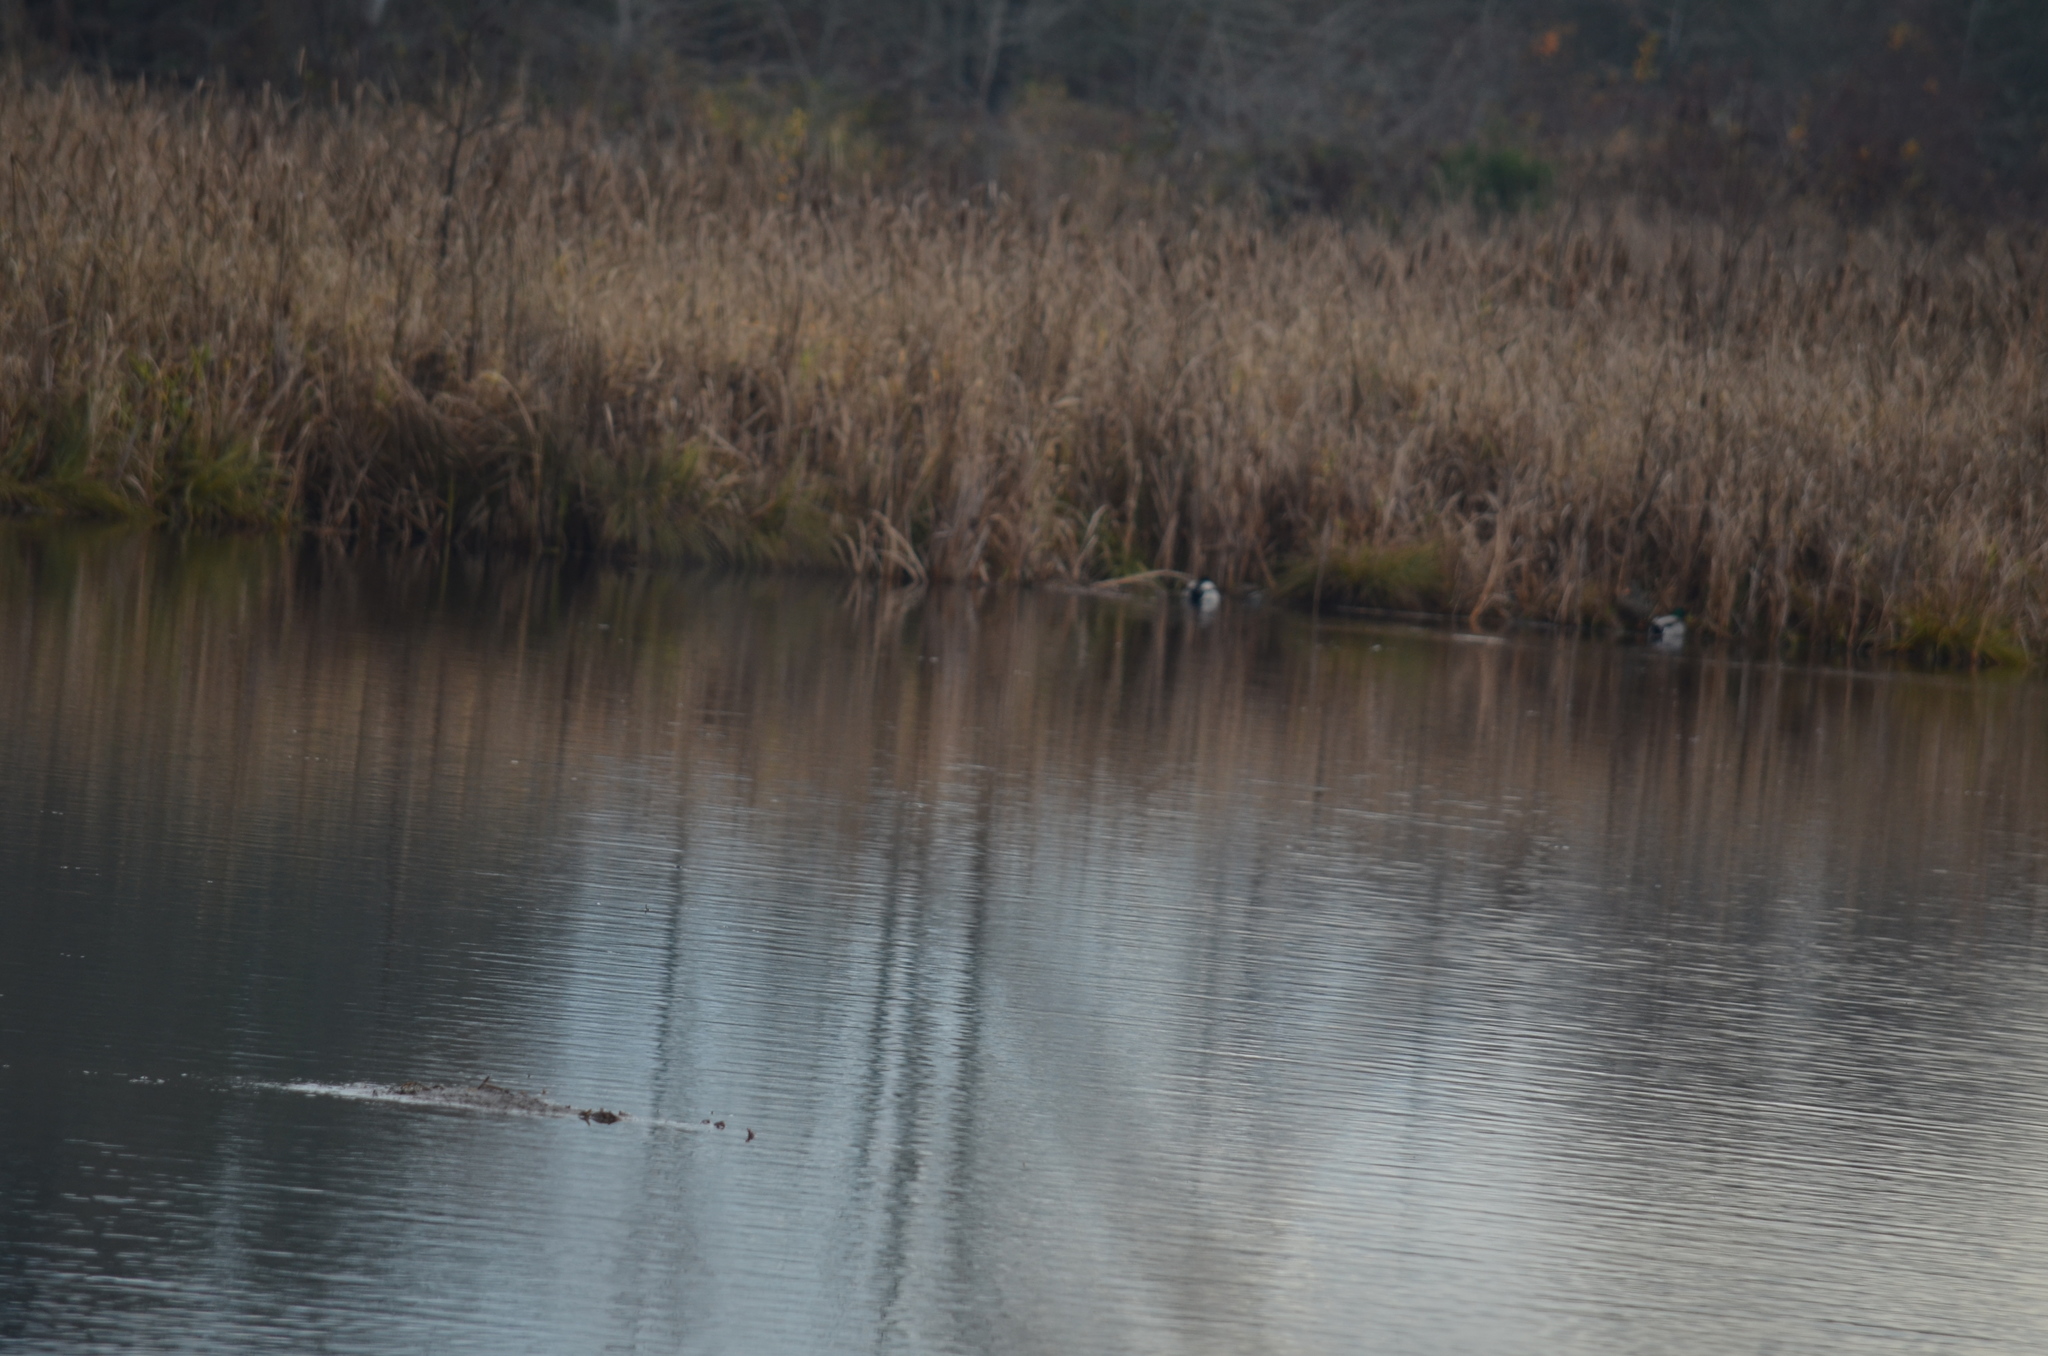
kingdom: Animalia
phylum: Chordata
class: Aves
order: Anseriformes
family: Anatidae
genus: Anas
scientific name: Anas platyrhynchos
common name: Mallard
